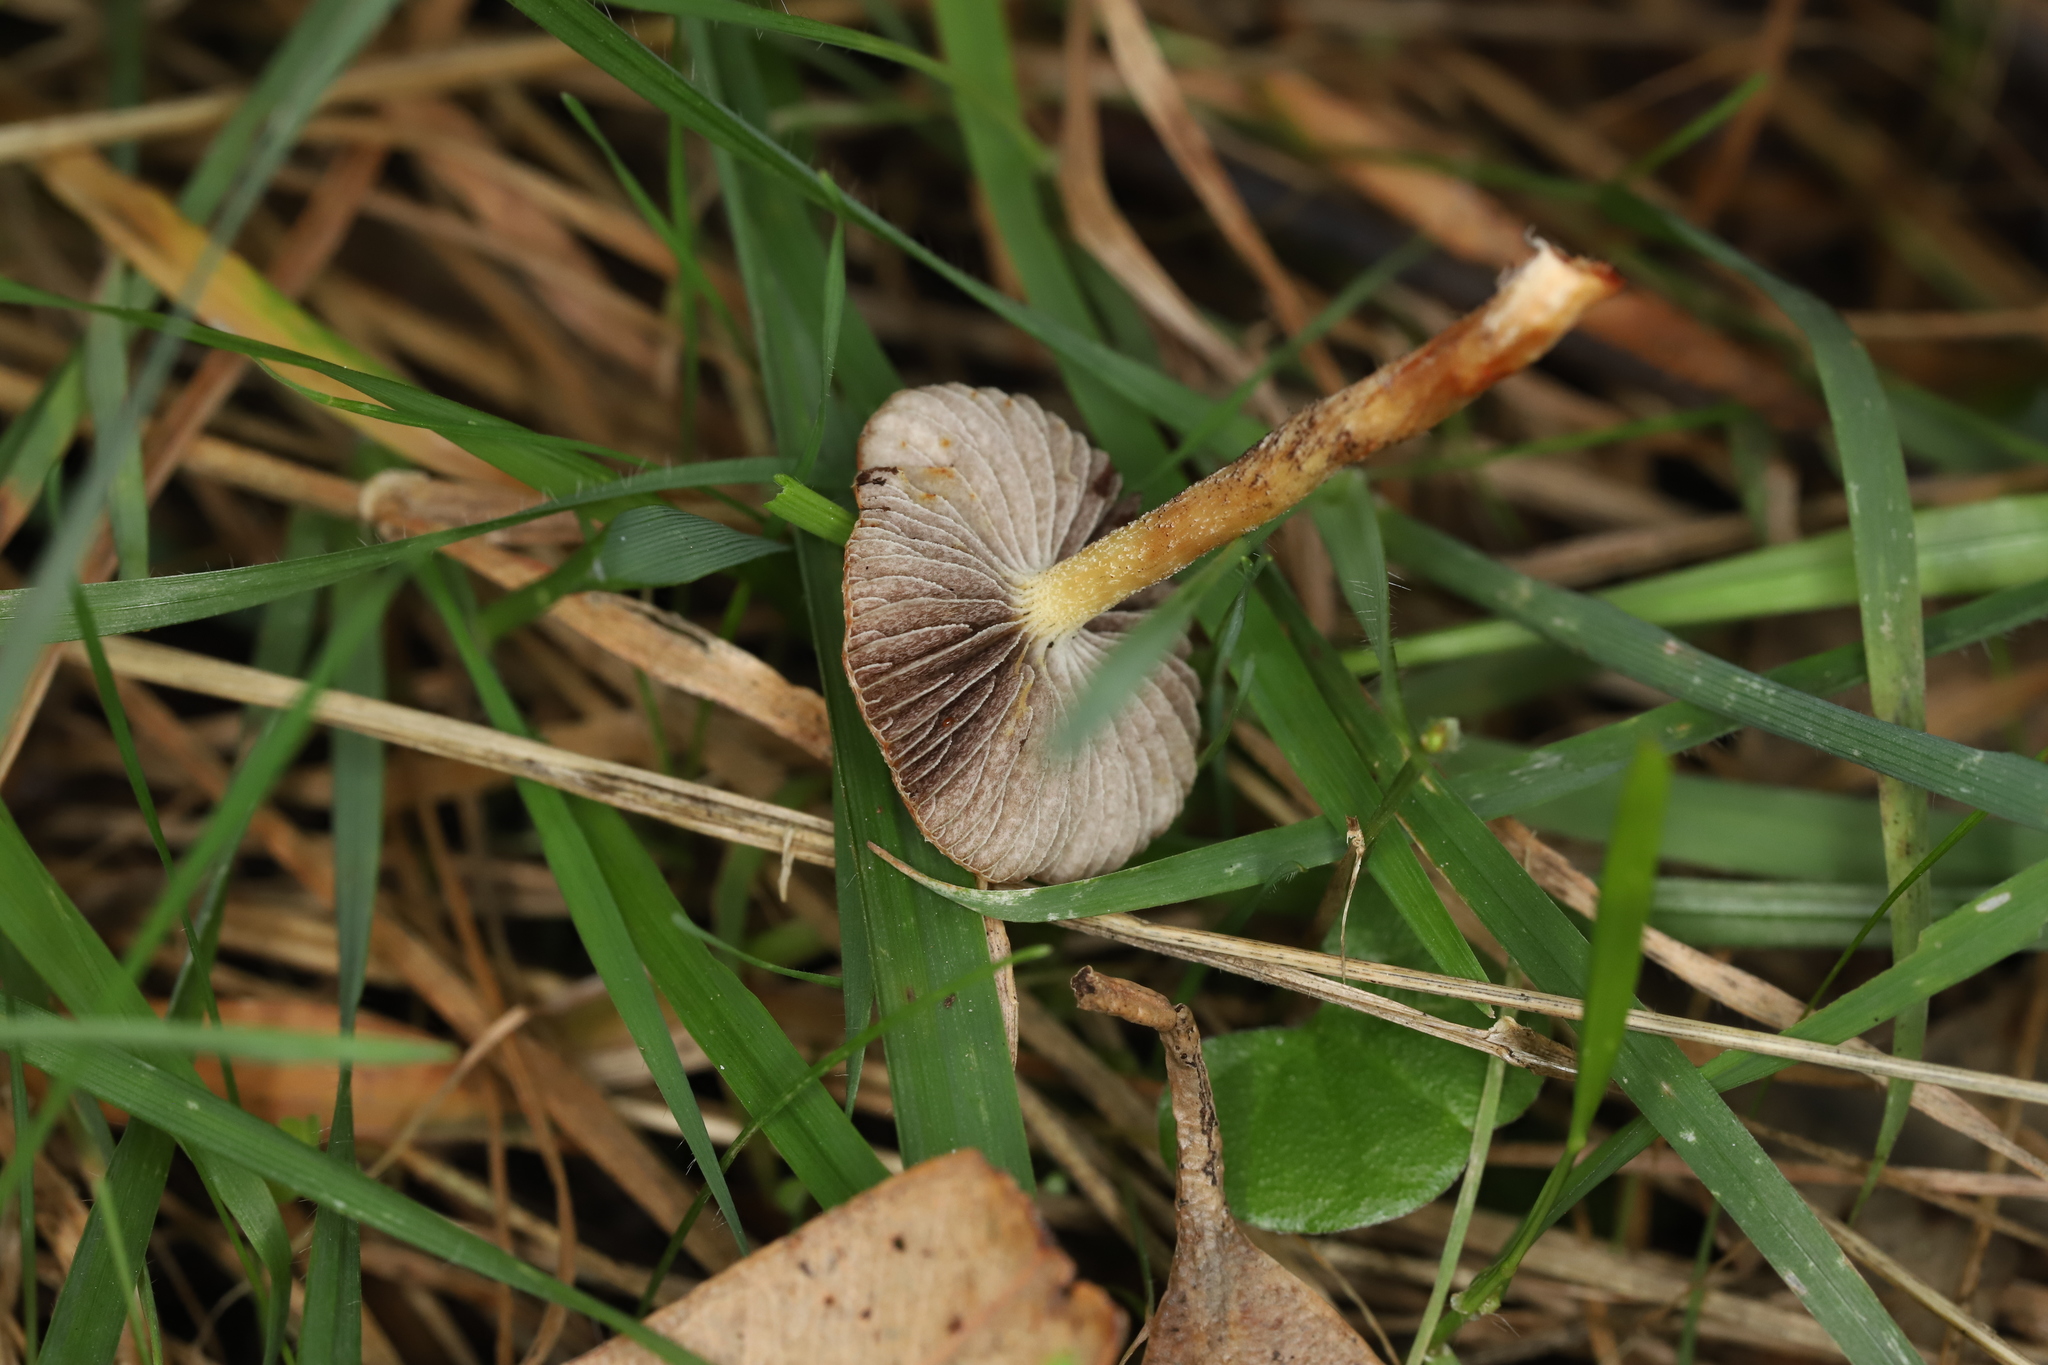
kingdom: Fungi
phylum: Basidiomycota
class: Agaricomycetes
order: Agaricales
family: Strophariaceae
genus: Leratiomyces
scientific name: Leratiomyces ceres
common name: Redlead roundhead
